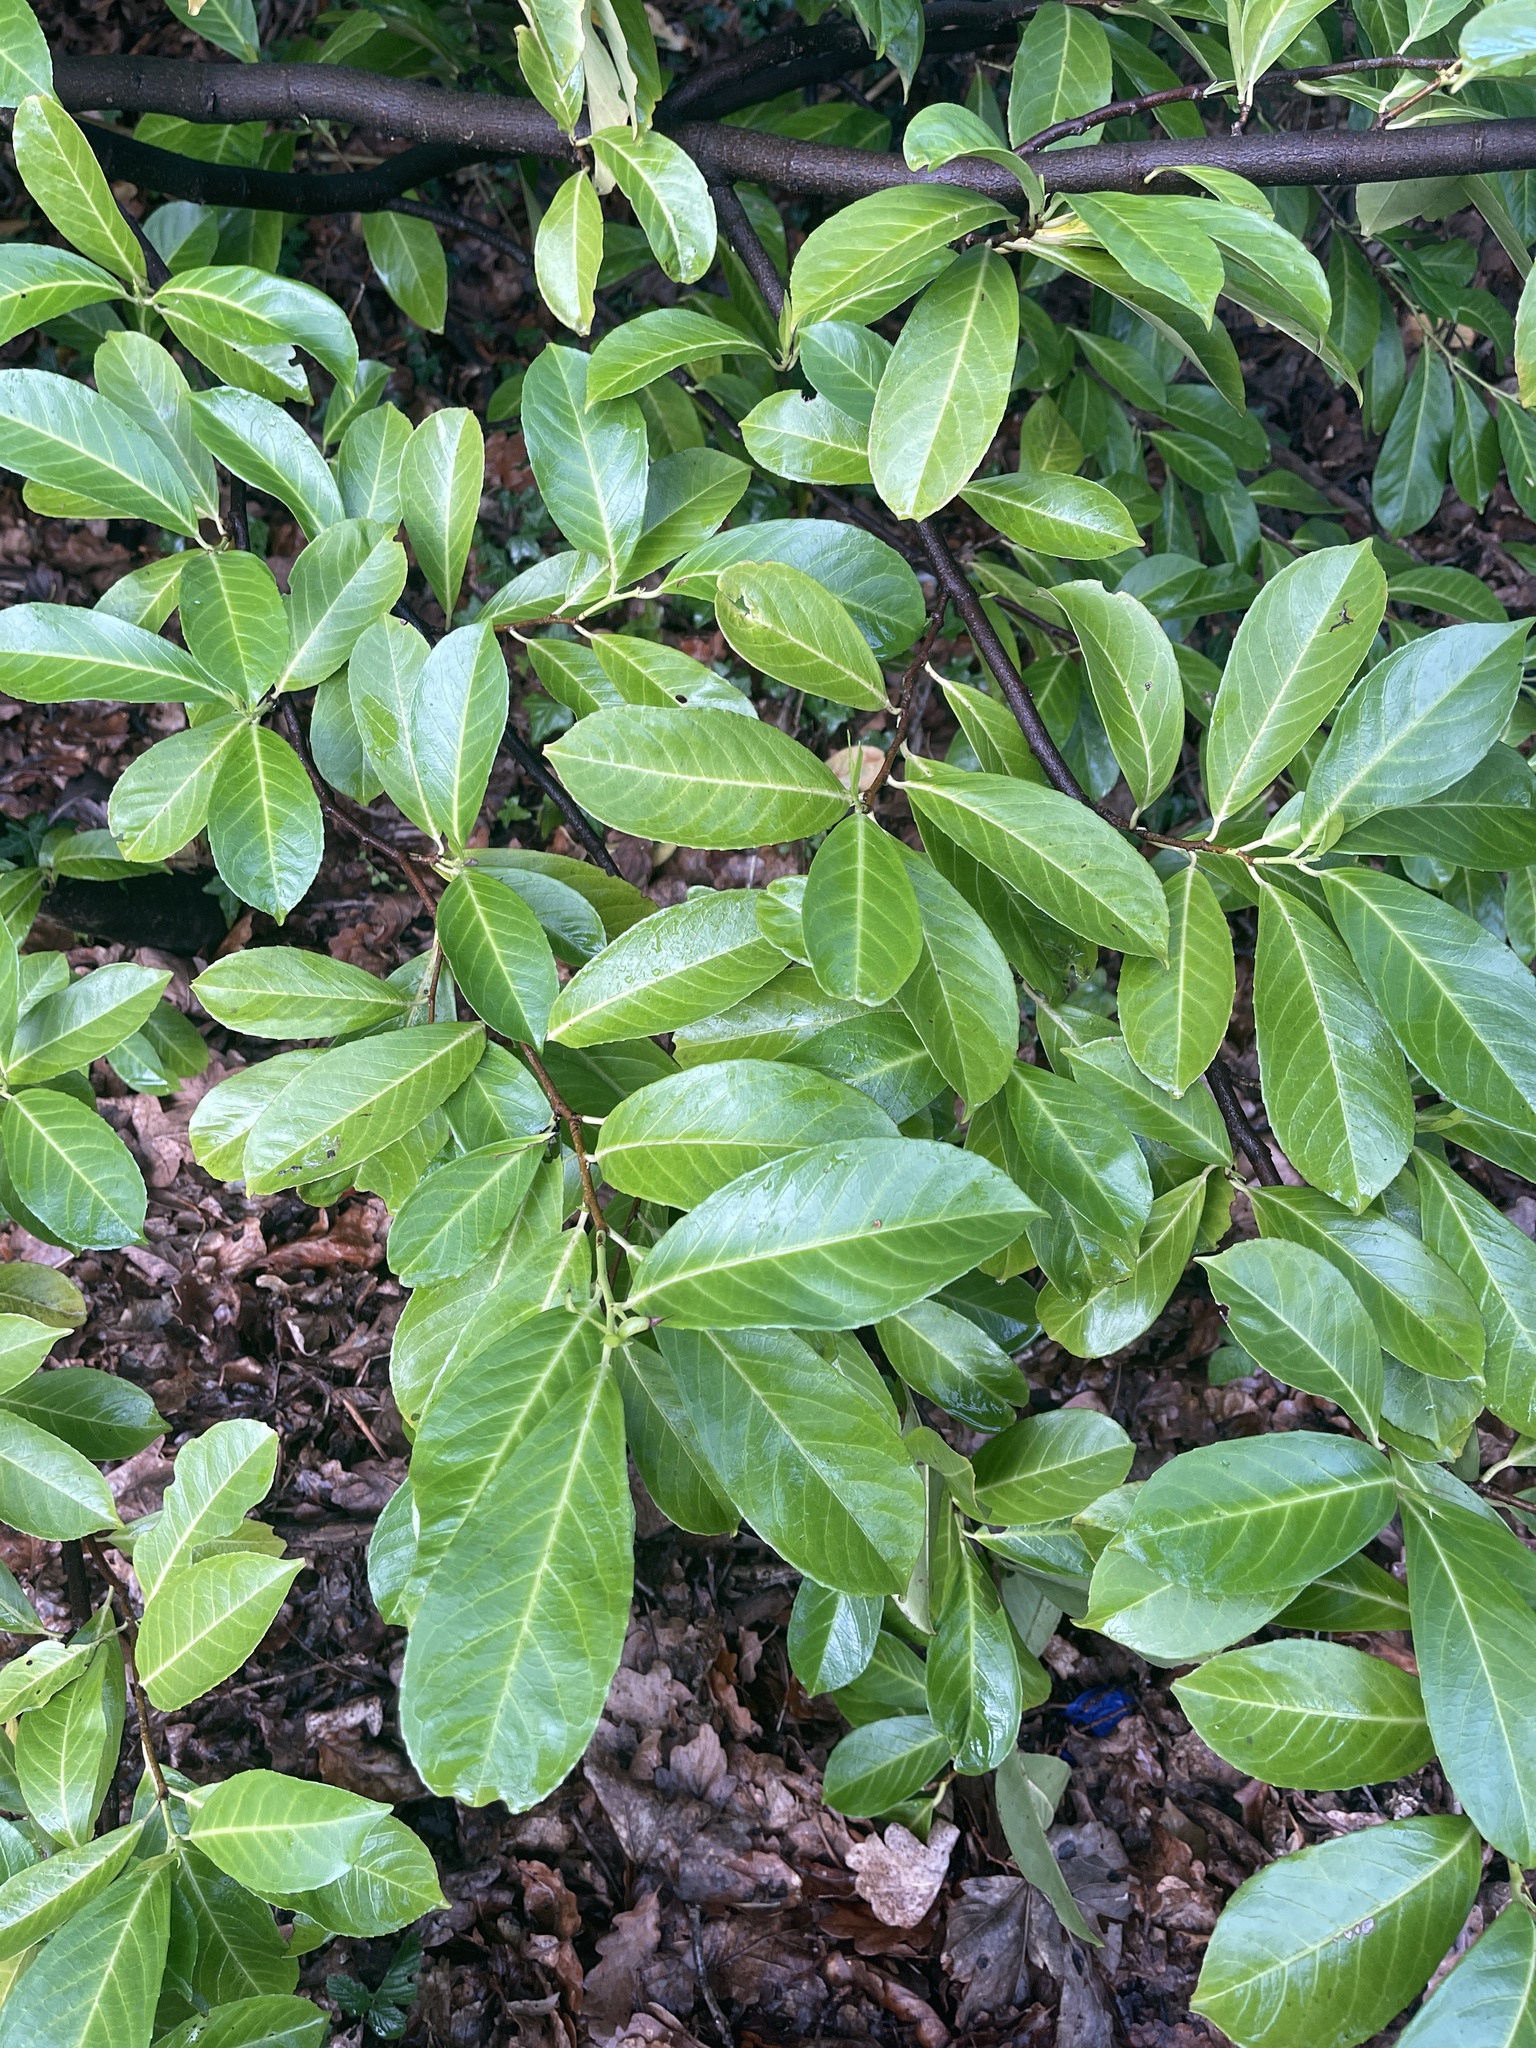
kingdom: Plantae
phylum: Tracheophyta
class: Magnoliopsida
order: Rosales
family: Rosaceae
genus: Prunus
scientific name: Prunus laurocerasus
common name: Cherry laurel
